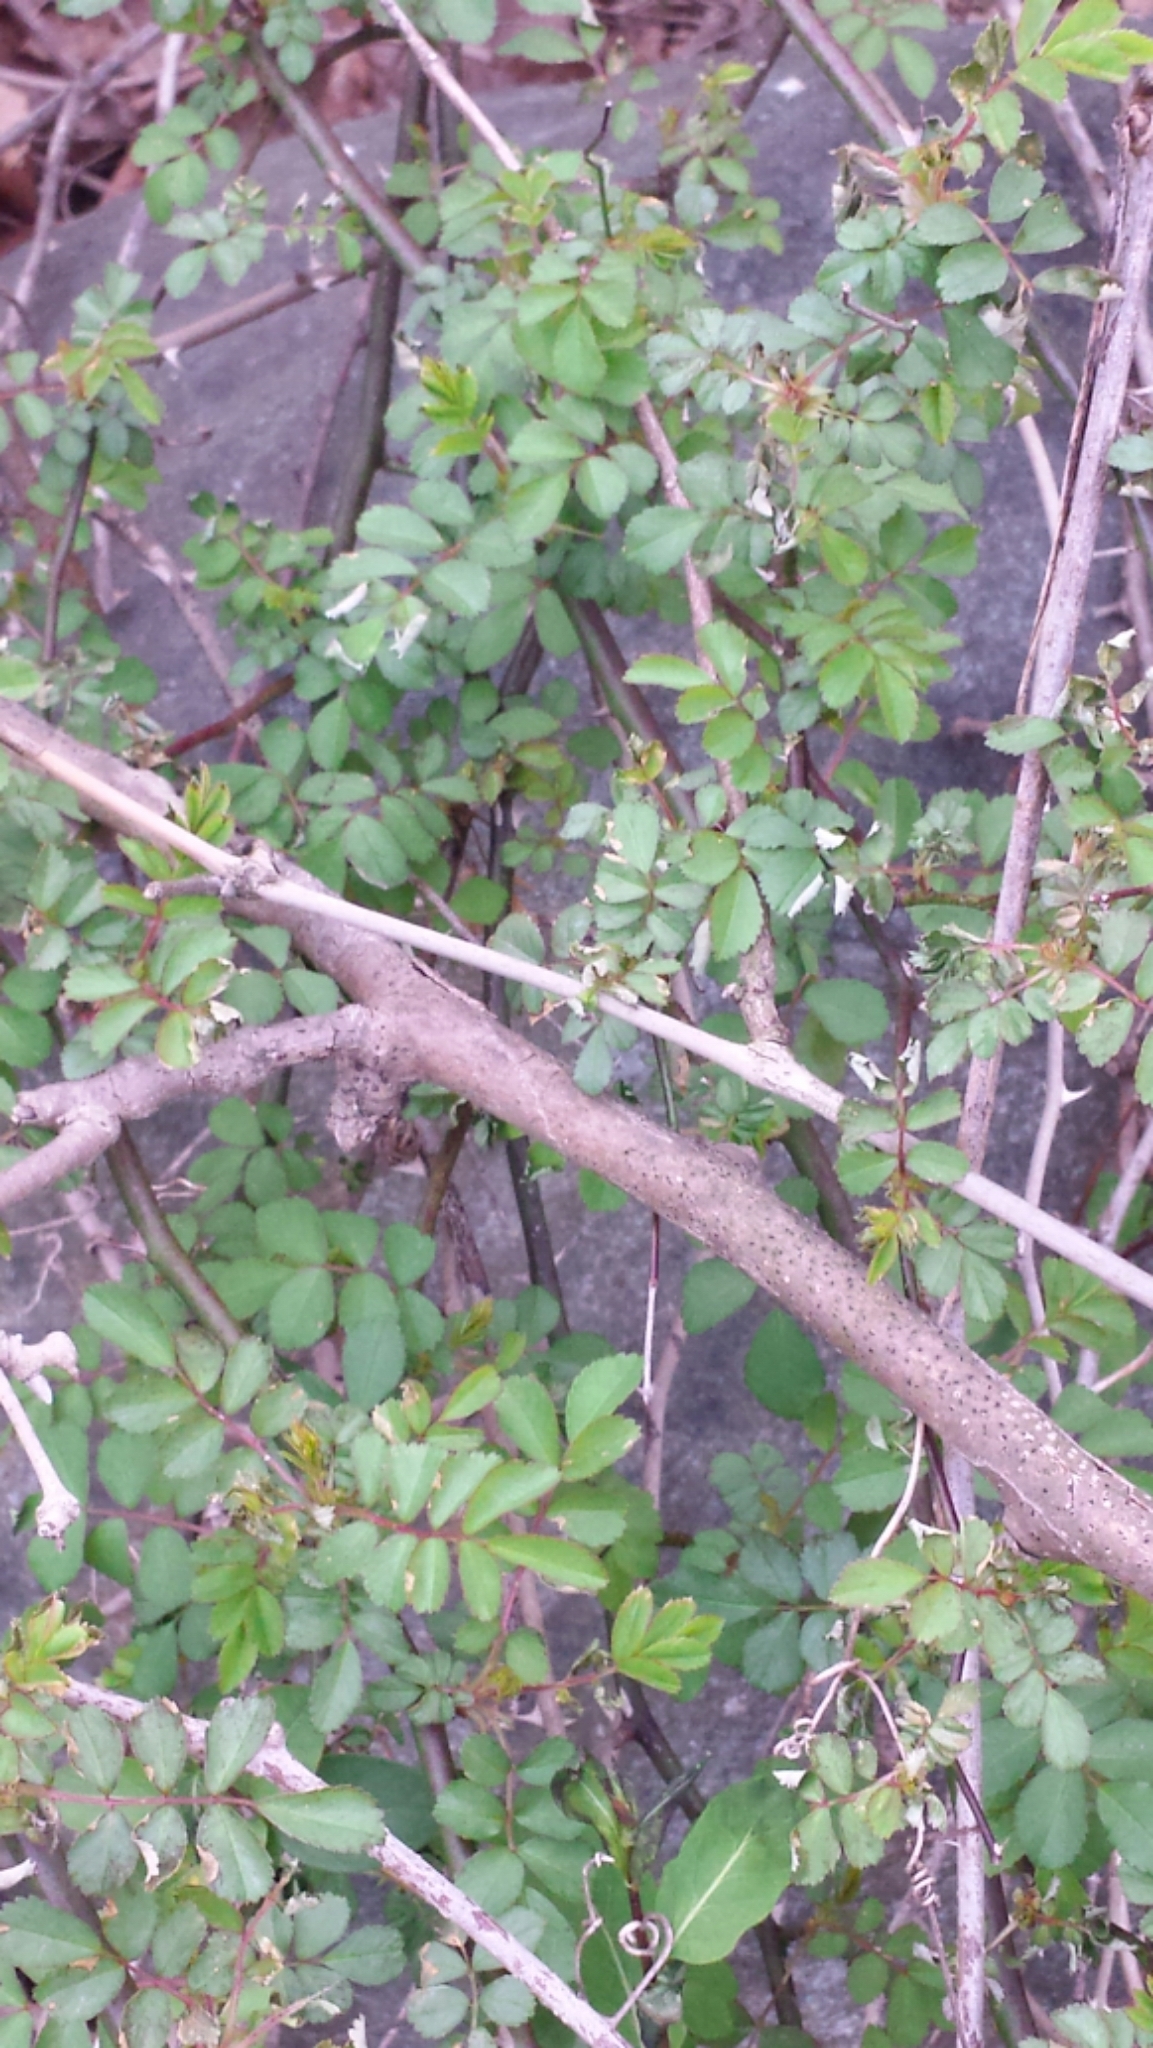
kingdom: Plantae
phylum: Tracheophyta
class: Magnoliopsida
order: Rosales
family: Rosaceae
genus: Rosa
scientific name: Rosa multiflora
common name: Multiflora rose
